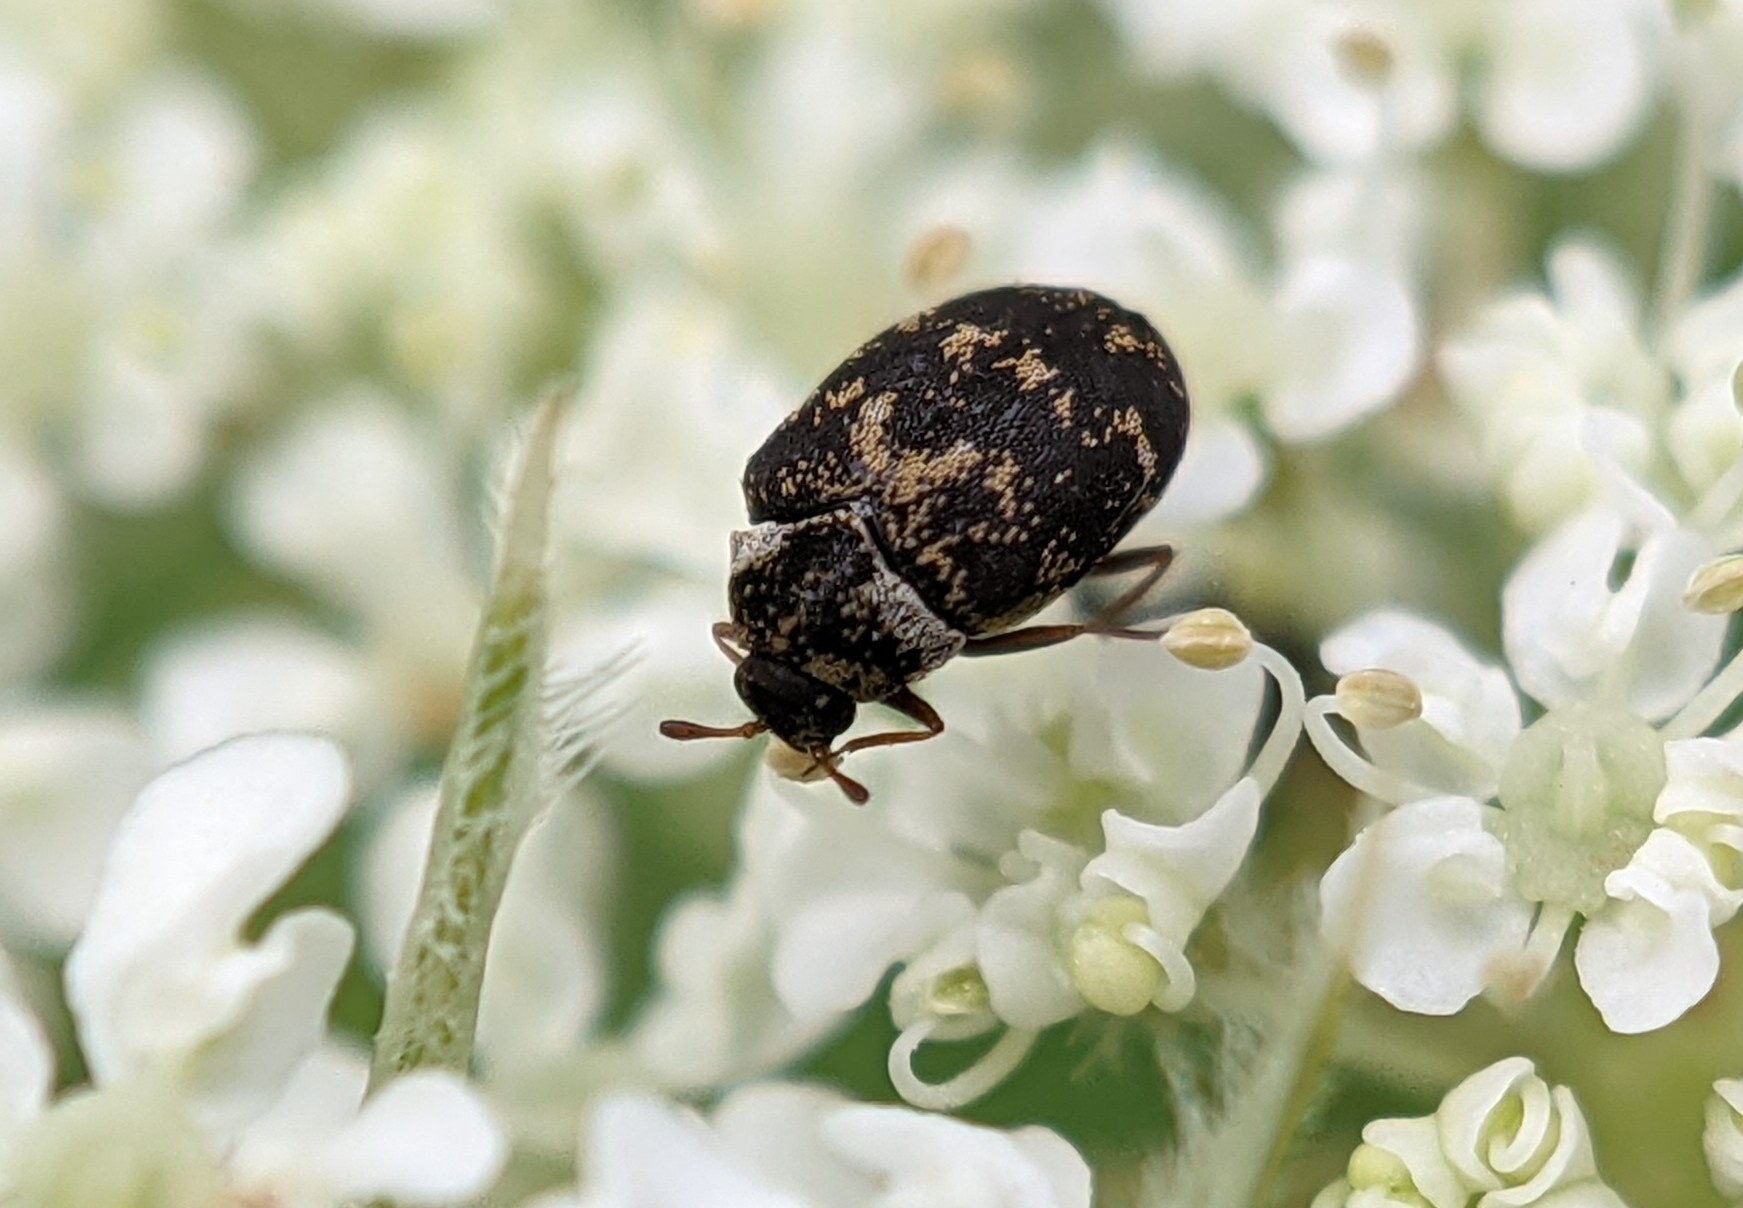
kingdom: Animalia
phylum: Arthropoda
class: Insecta
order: Coleoptera
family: Dermestidae
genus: Anthrenus
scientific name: Anthrenus fuscus
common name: Mill carpet beetle
